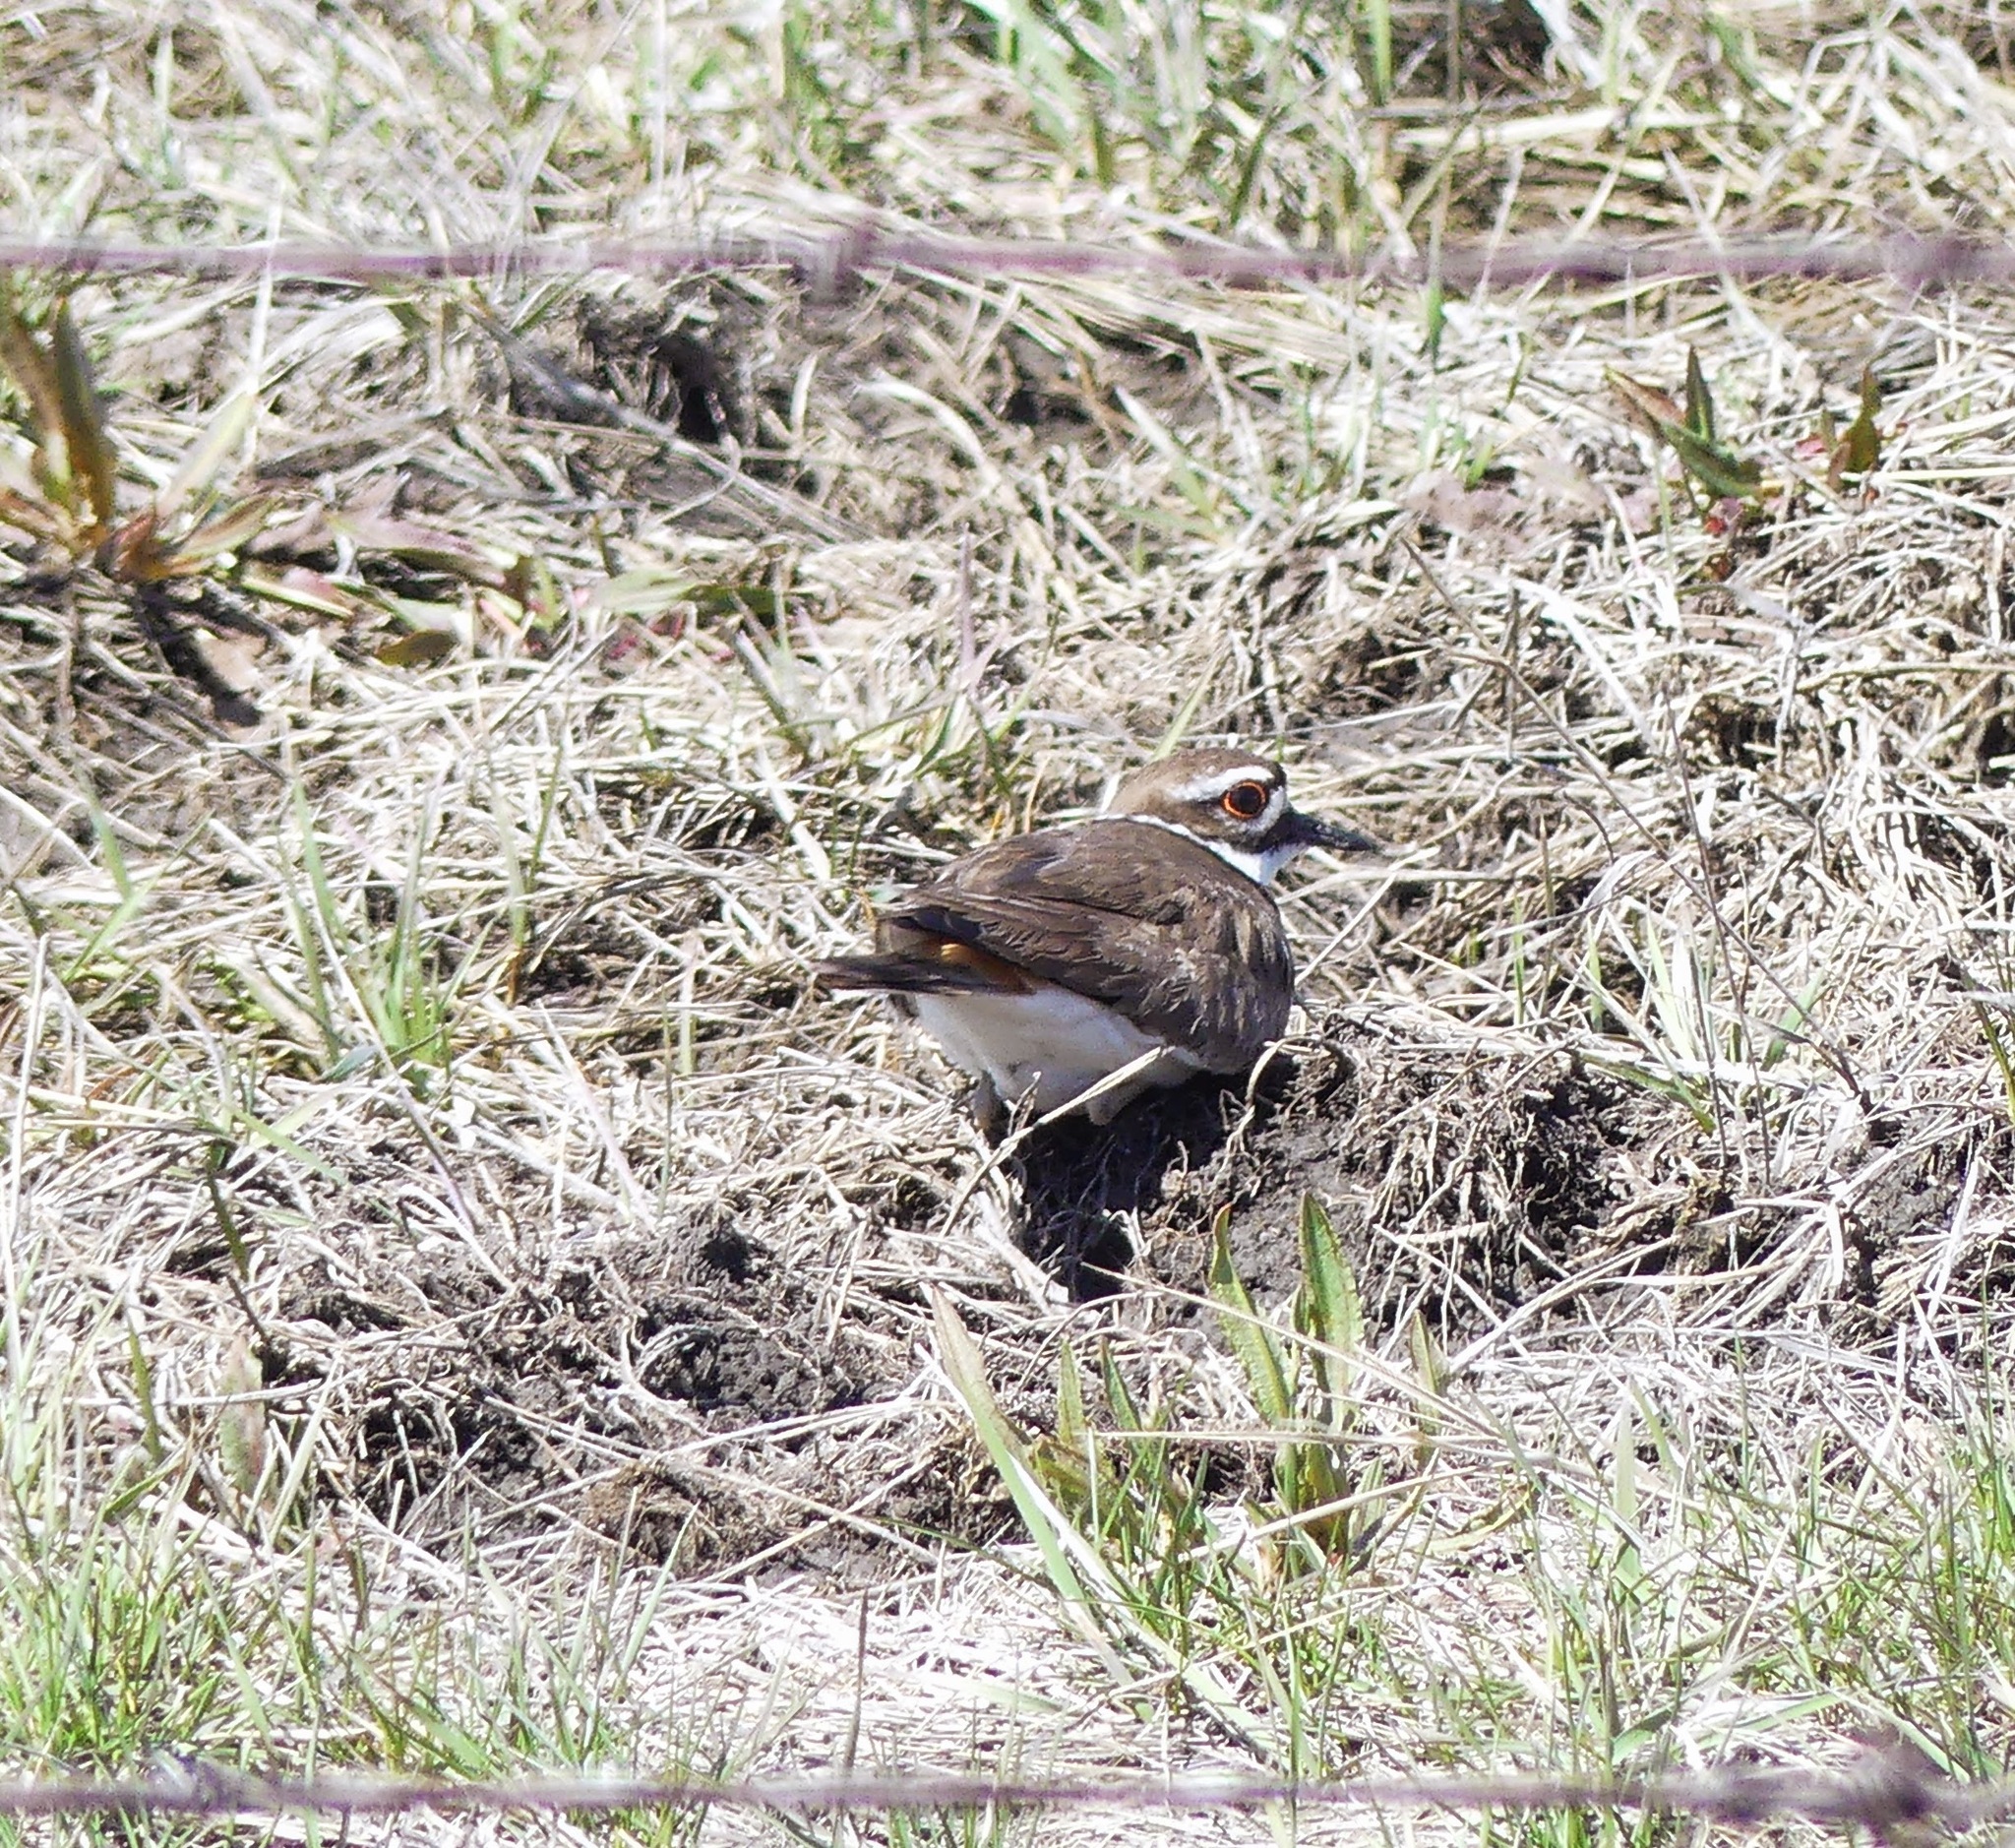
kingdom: Animalia
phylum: Chordata
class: Aves
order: Charadriiformes
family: Charadriidae
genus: Charadrius
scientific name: Charadrius vociferus
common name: Killdeer
